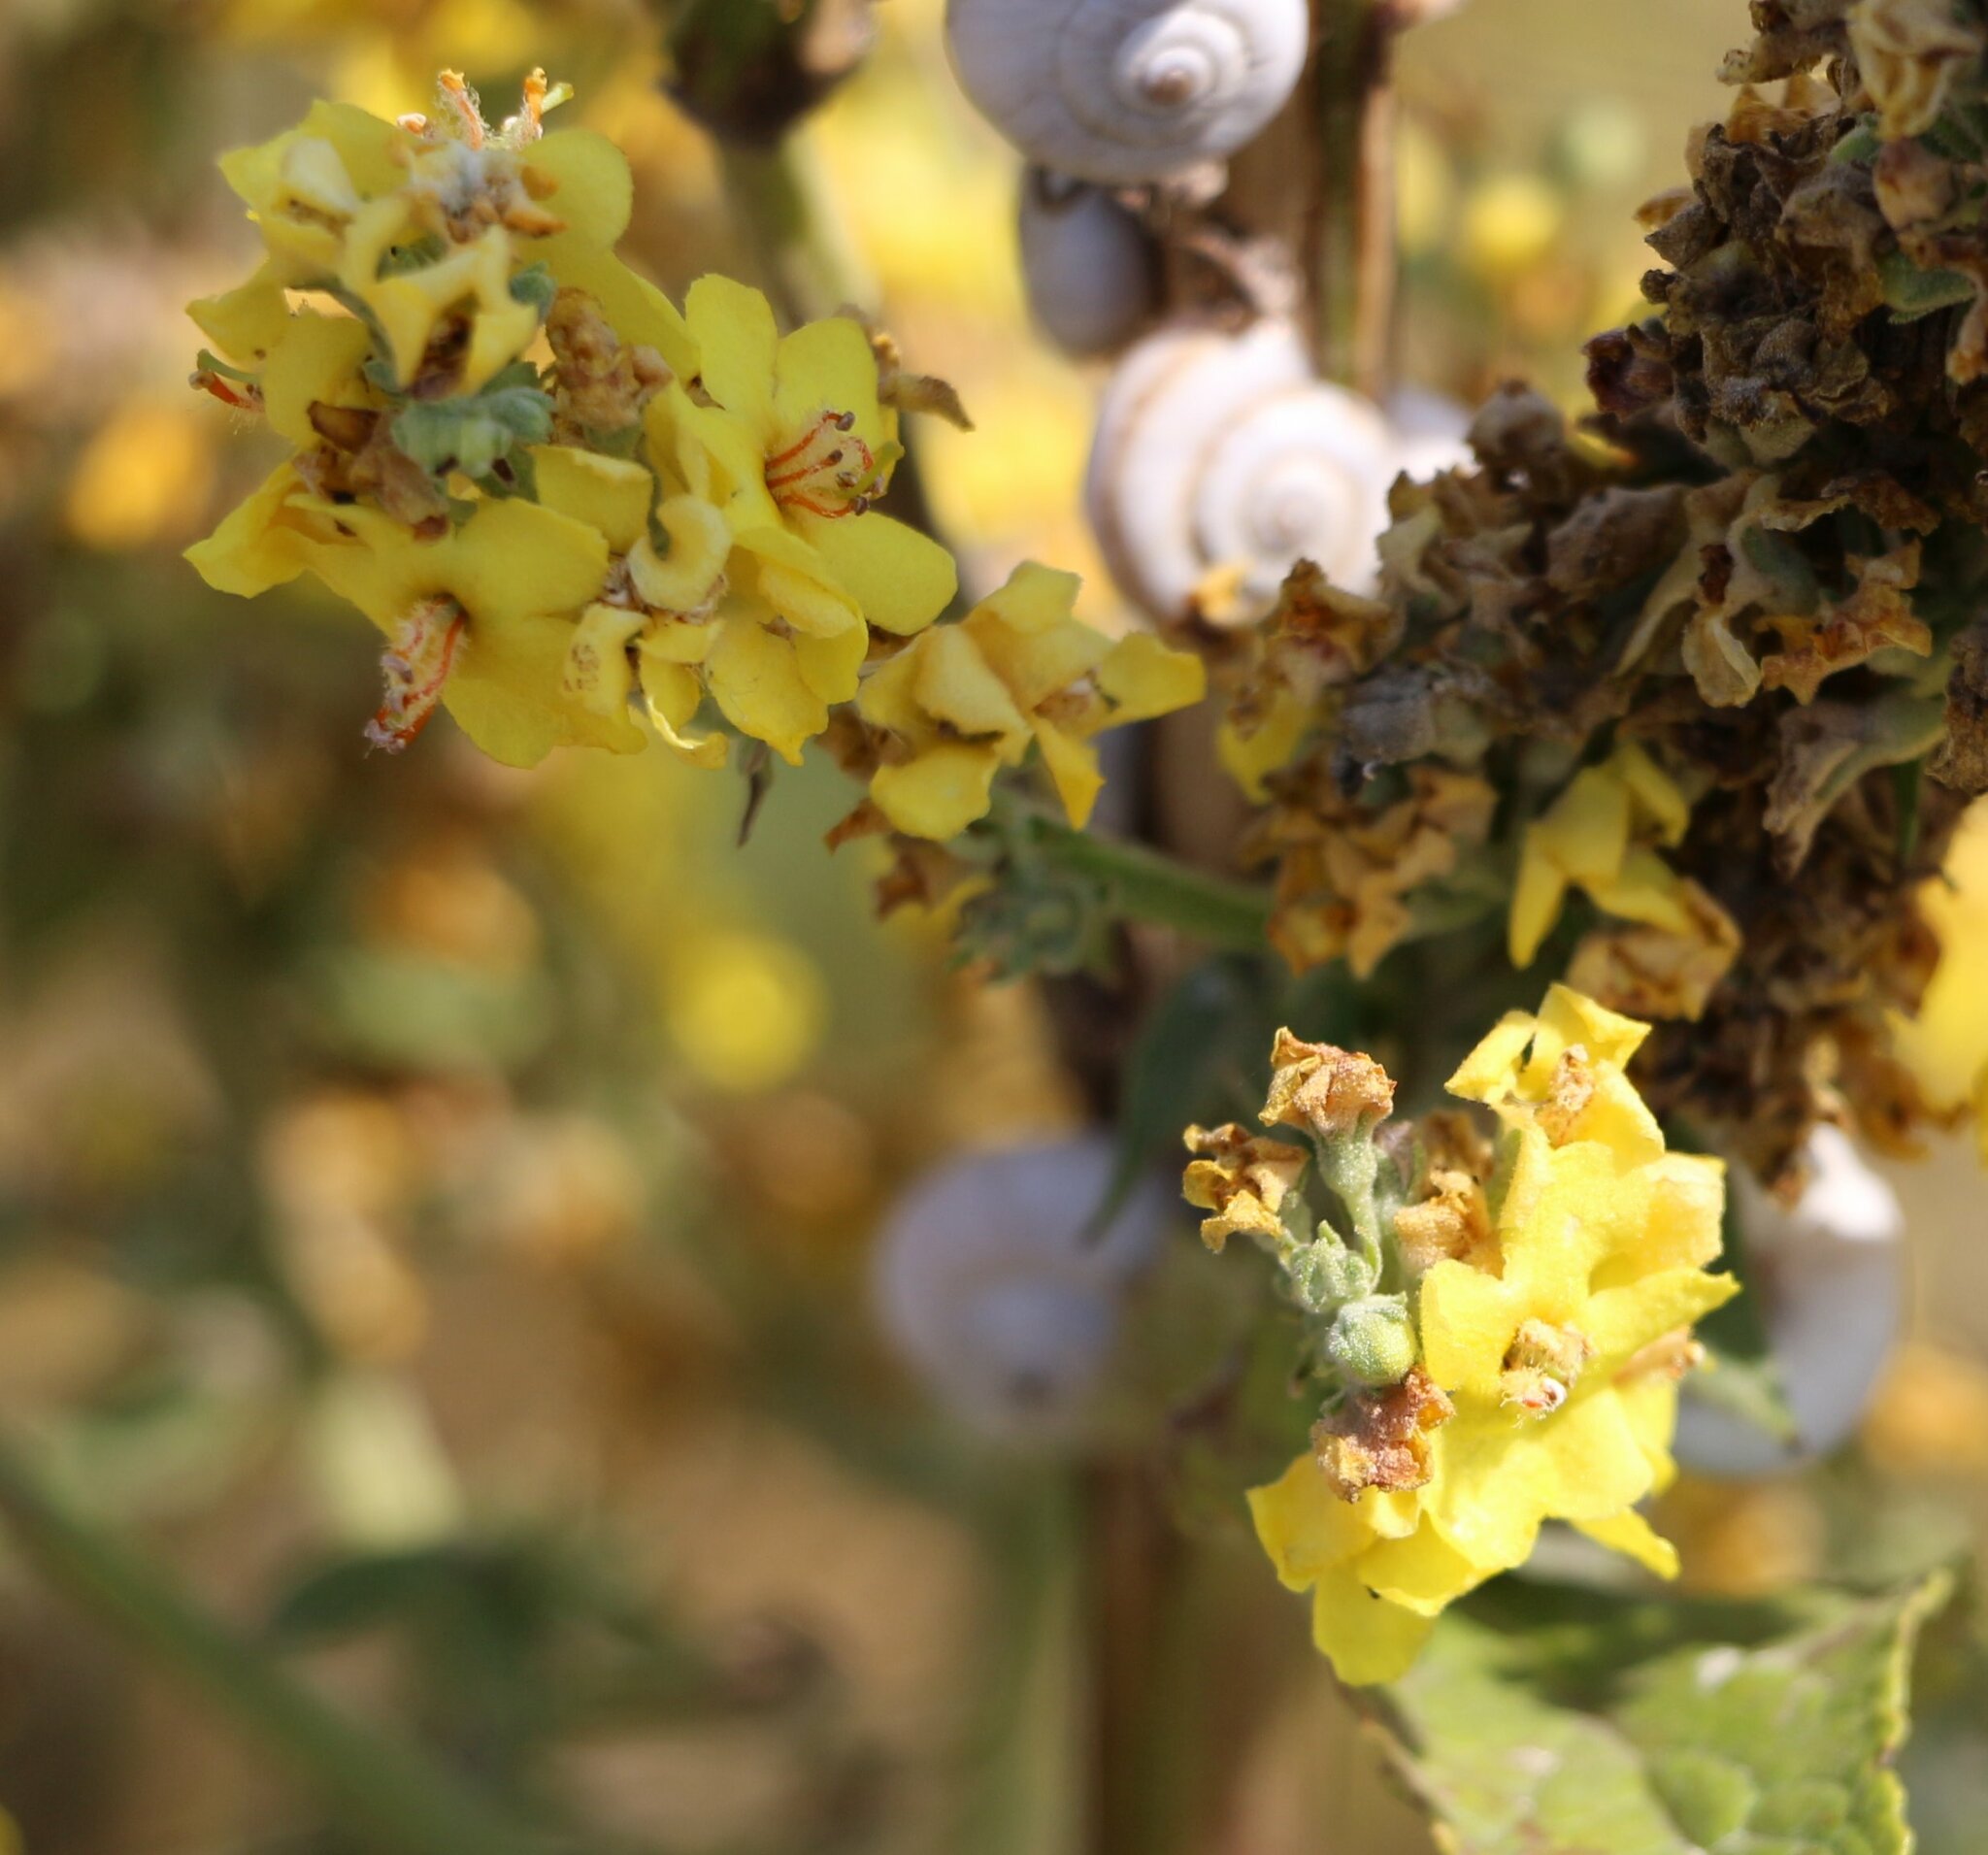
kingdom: Plantae
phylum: Tracheophyta
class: Magnoliopsida
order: Lamiales
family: Scrophulariaceae
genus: Verbascum
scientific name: Verbascum lychnitis
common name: White mullein
